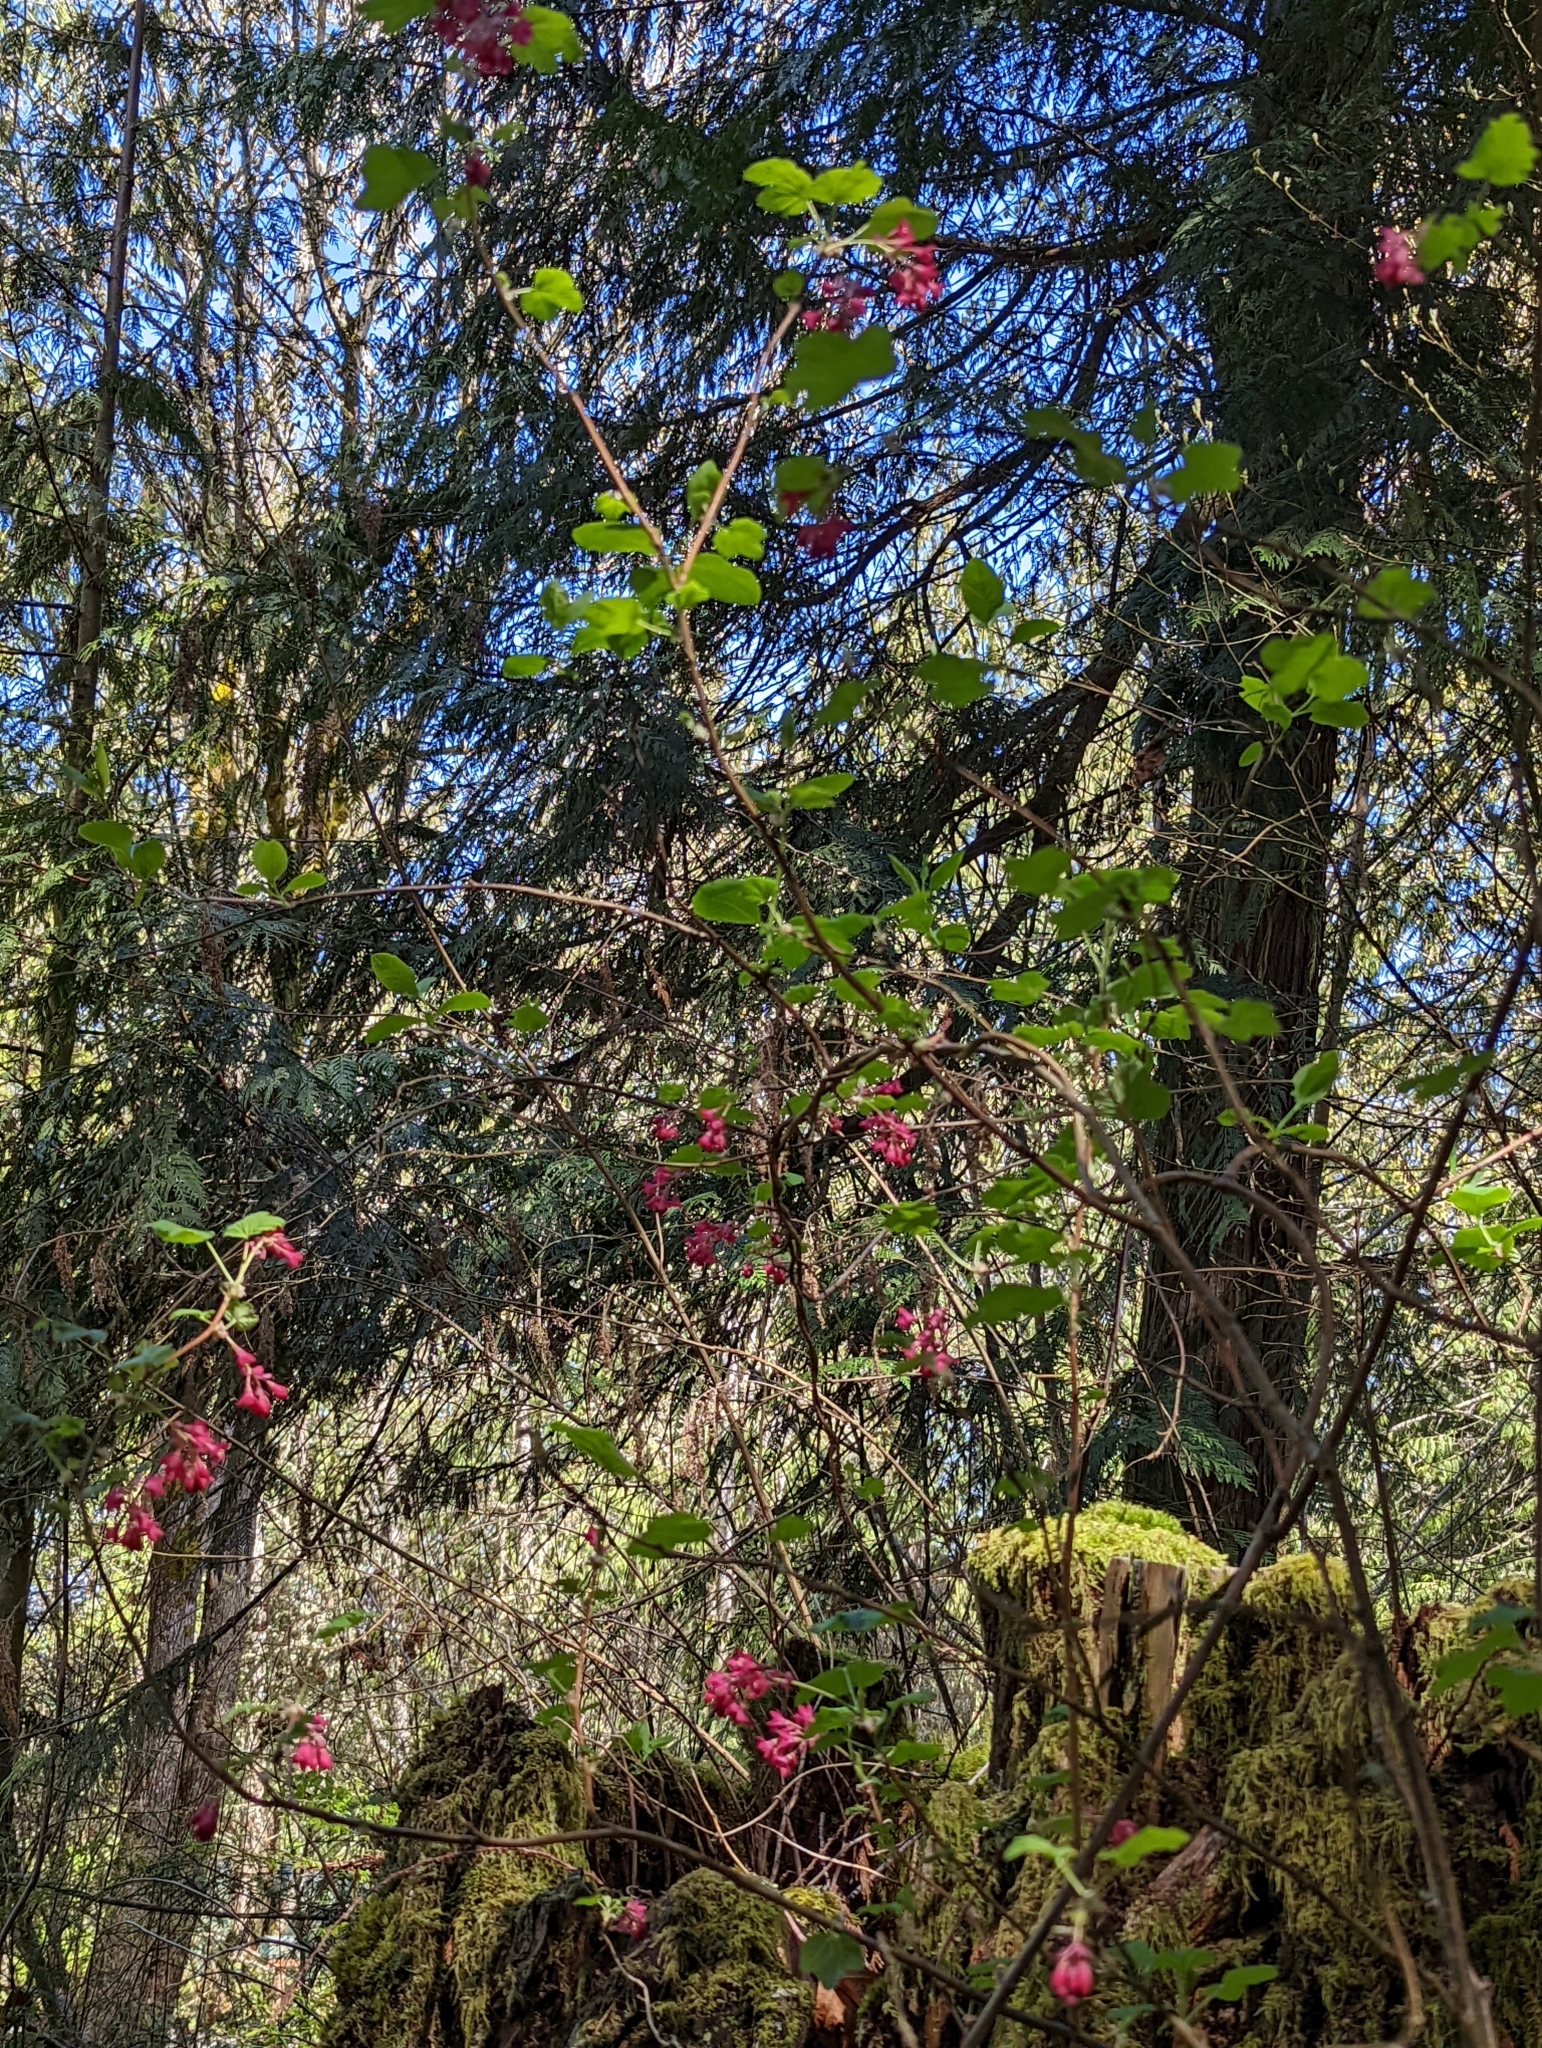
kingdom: Plantae
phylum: Tracheophyta
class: Magnoliopsida
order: Saxifragales
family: Grossulariaceae
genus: Ribes
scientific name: Ribes sanguineum
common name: Flowering currant
